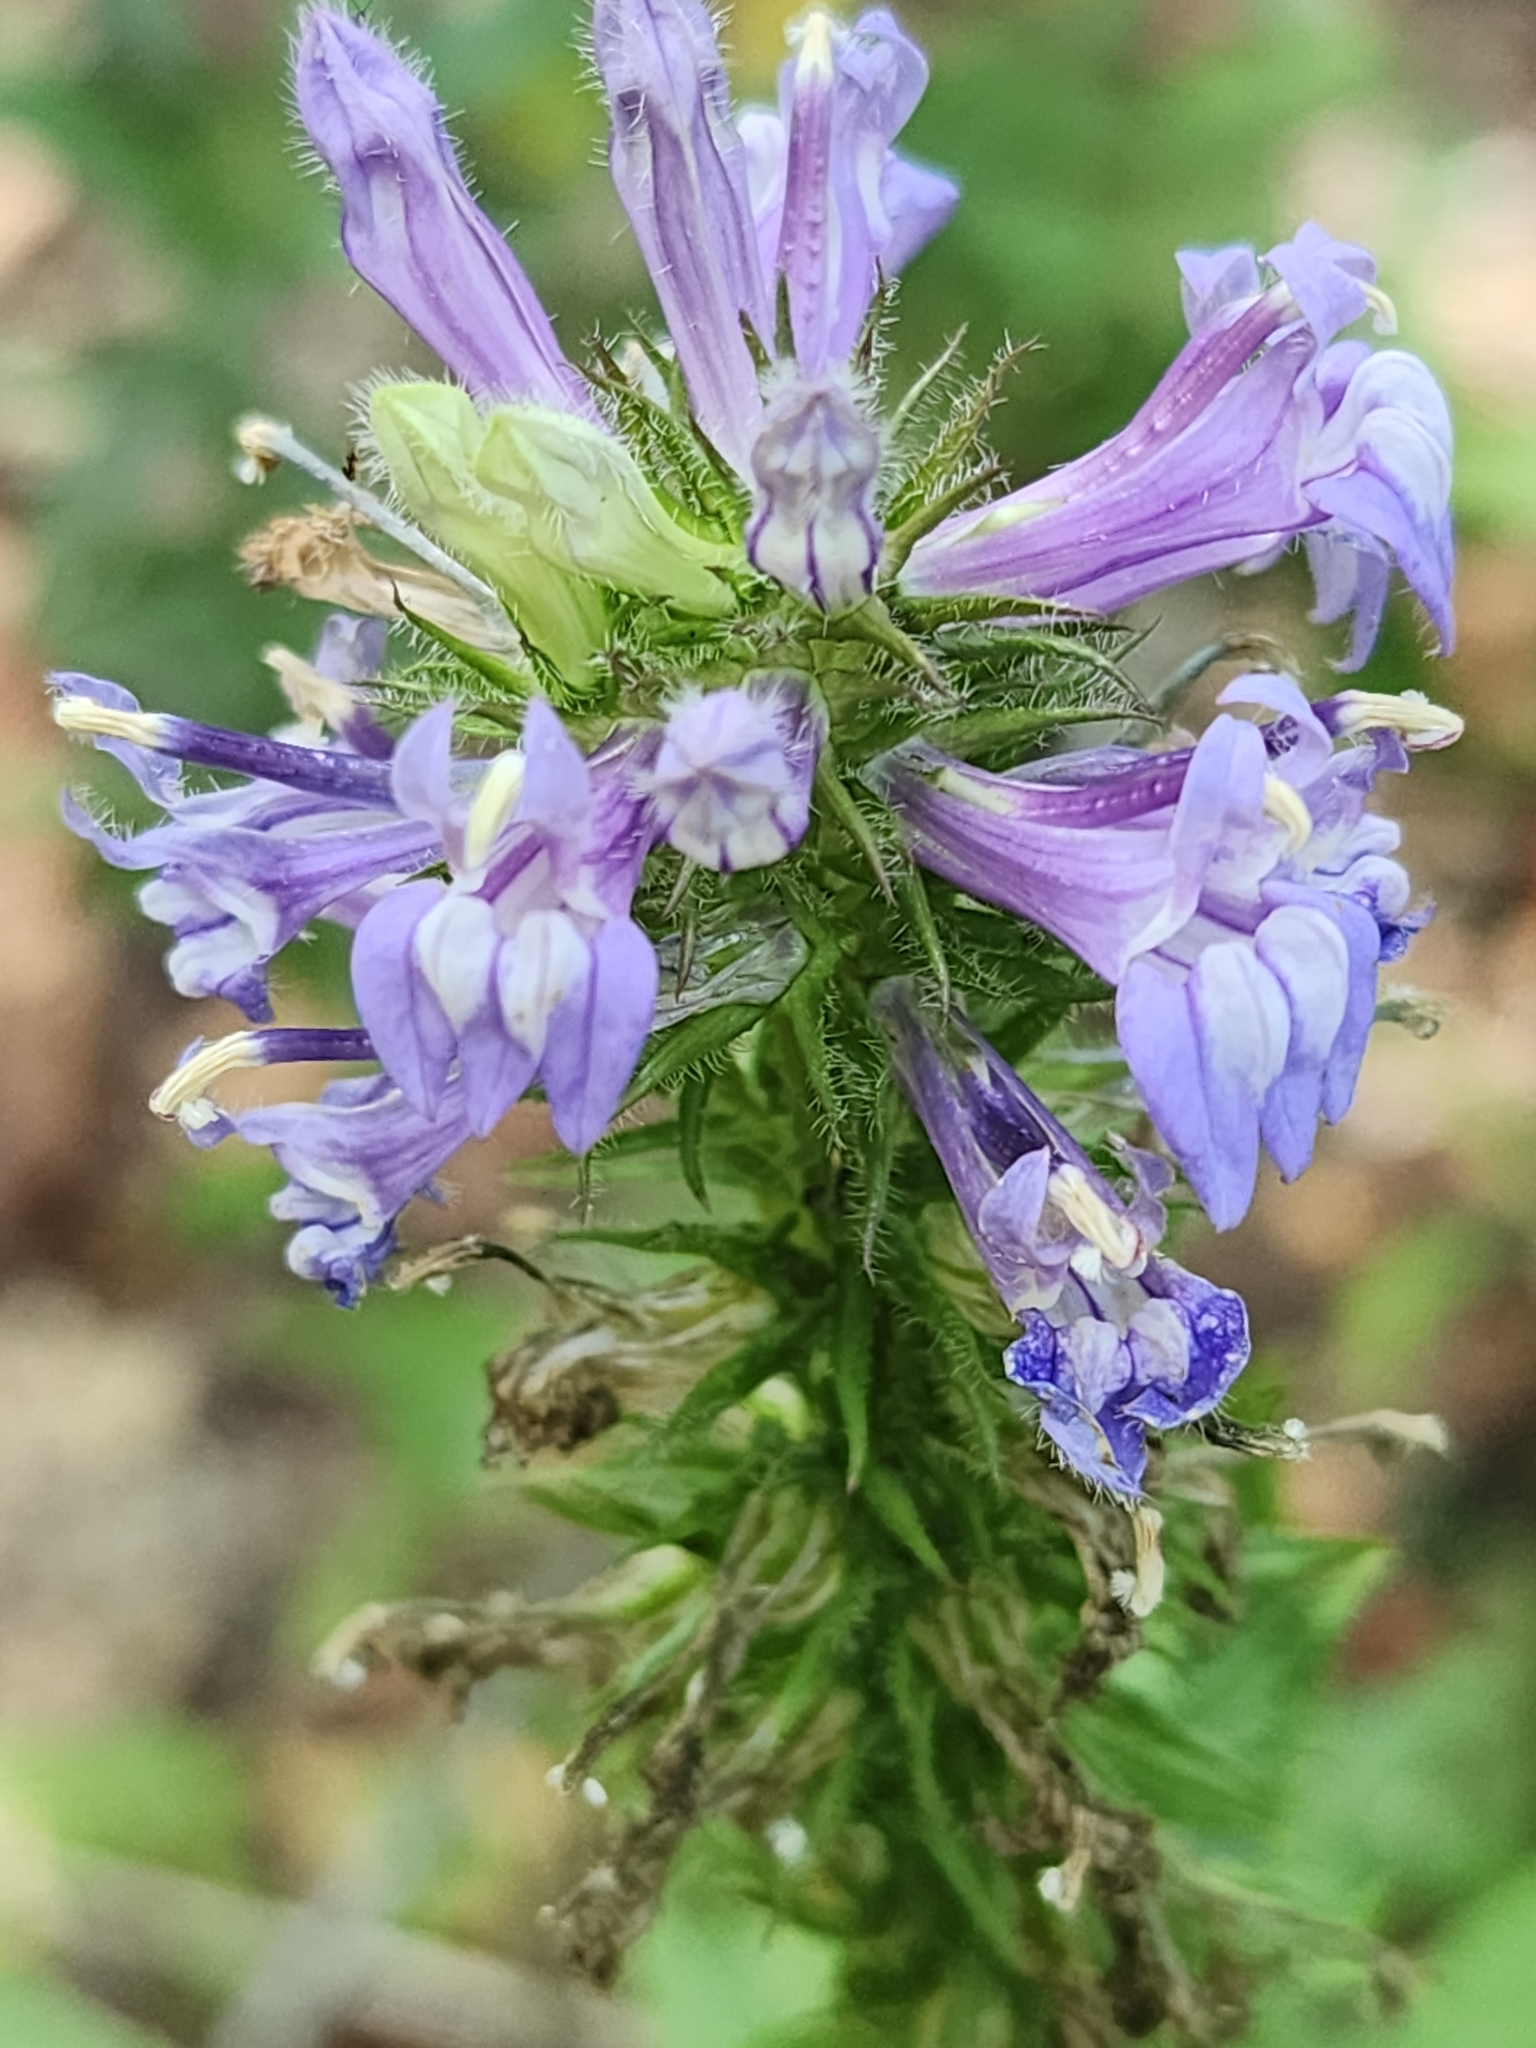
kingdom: Plantae
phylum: Tracheophyta
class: Magnoliopsida
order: Asterales
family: Campanulaceae
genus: Lobelia
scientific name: Lobelia siphilitica
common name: Great lobelia
